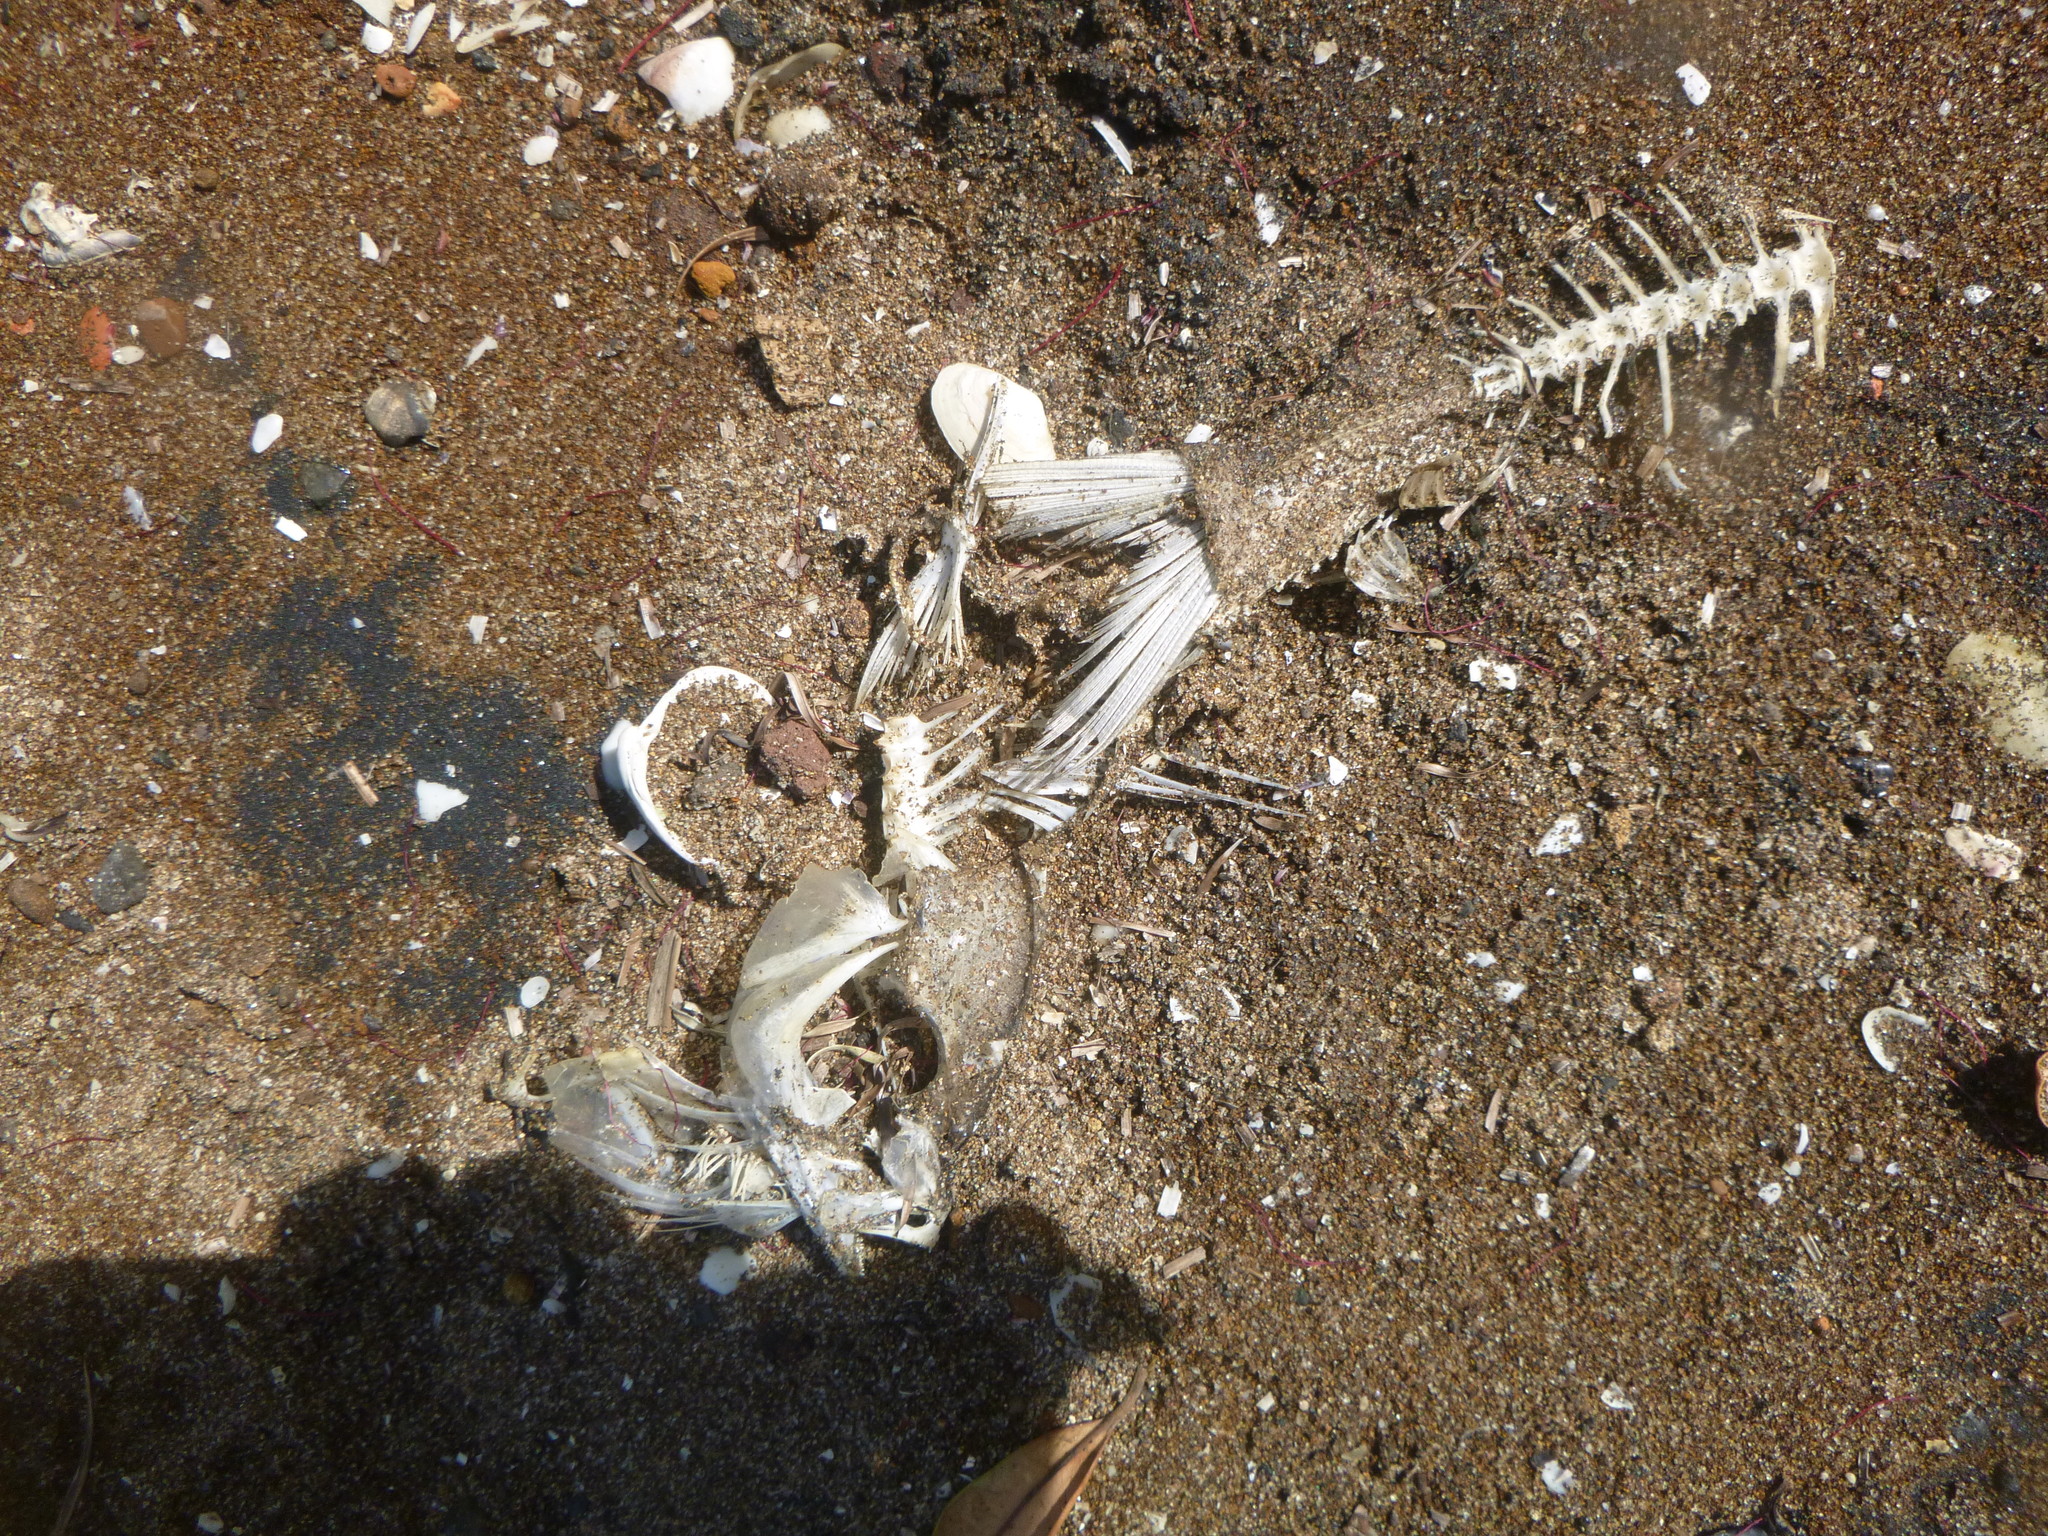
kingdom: Animalia
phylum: Chordata
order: Perciformes
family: Carangidae
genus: Pseudocaranx
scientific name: Pseudocaranx dentex
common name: White trevally
